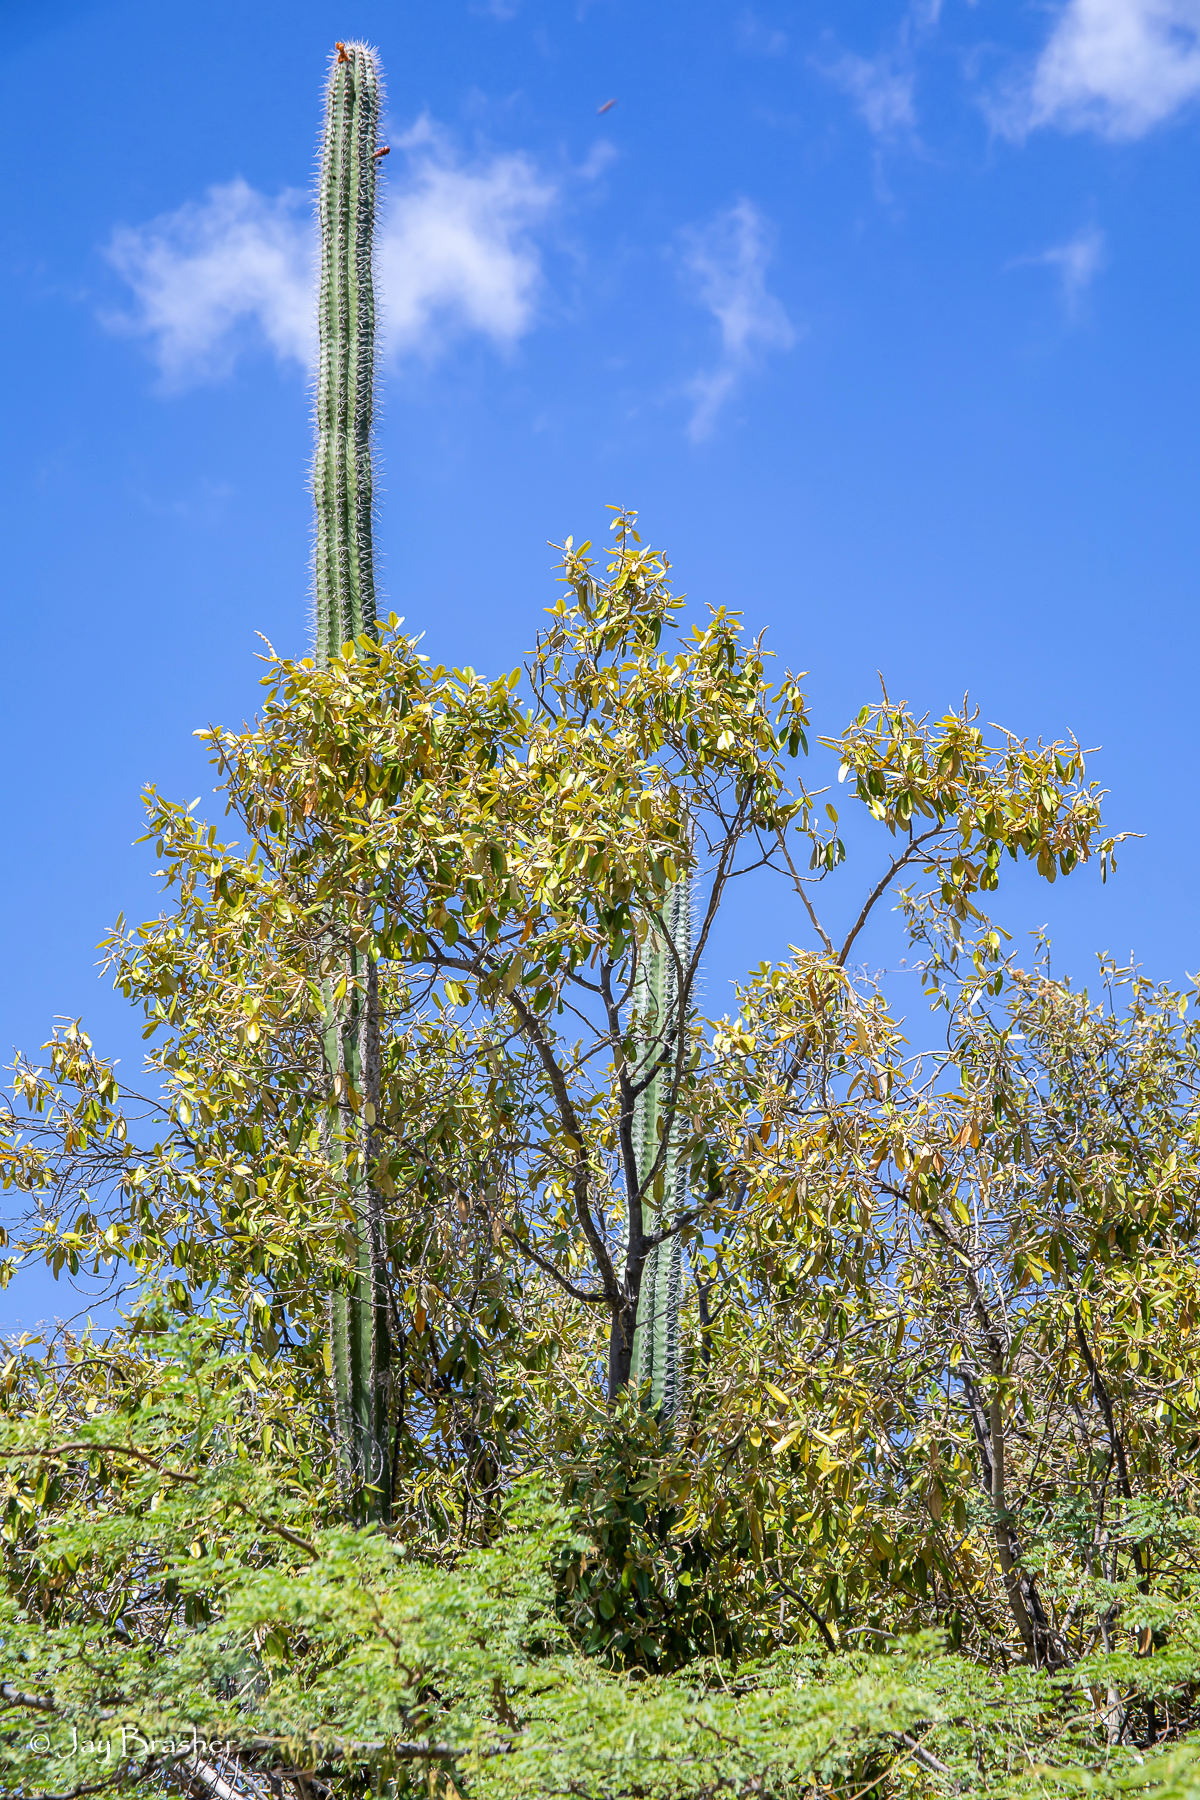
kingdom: Plantae
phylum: Tracheophyta
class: Magnoliopsida
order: Caryophyllales
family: Cactaceae
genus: Cereus
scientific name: Cereus repandus
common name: Sweetpotato cactus
